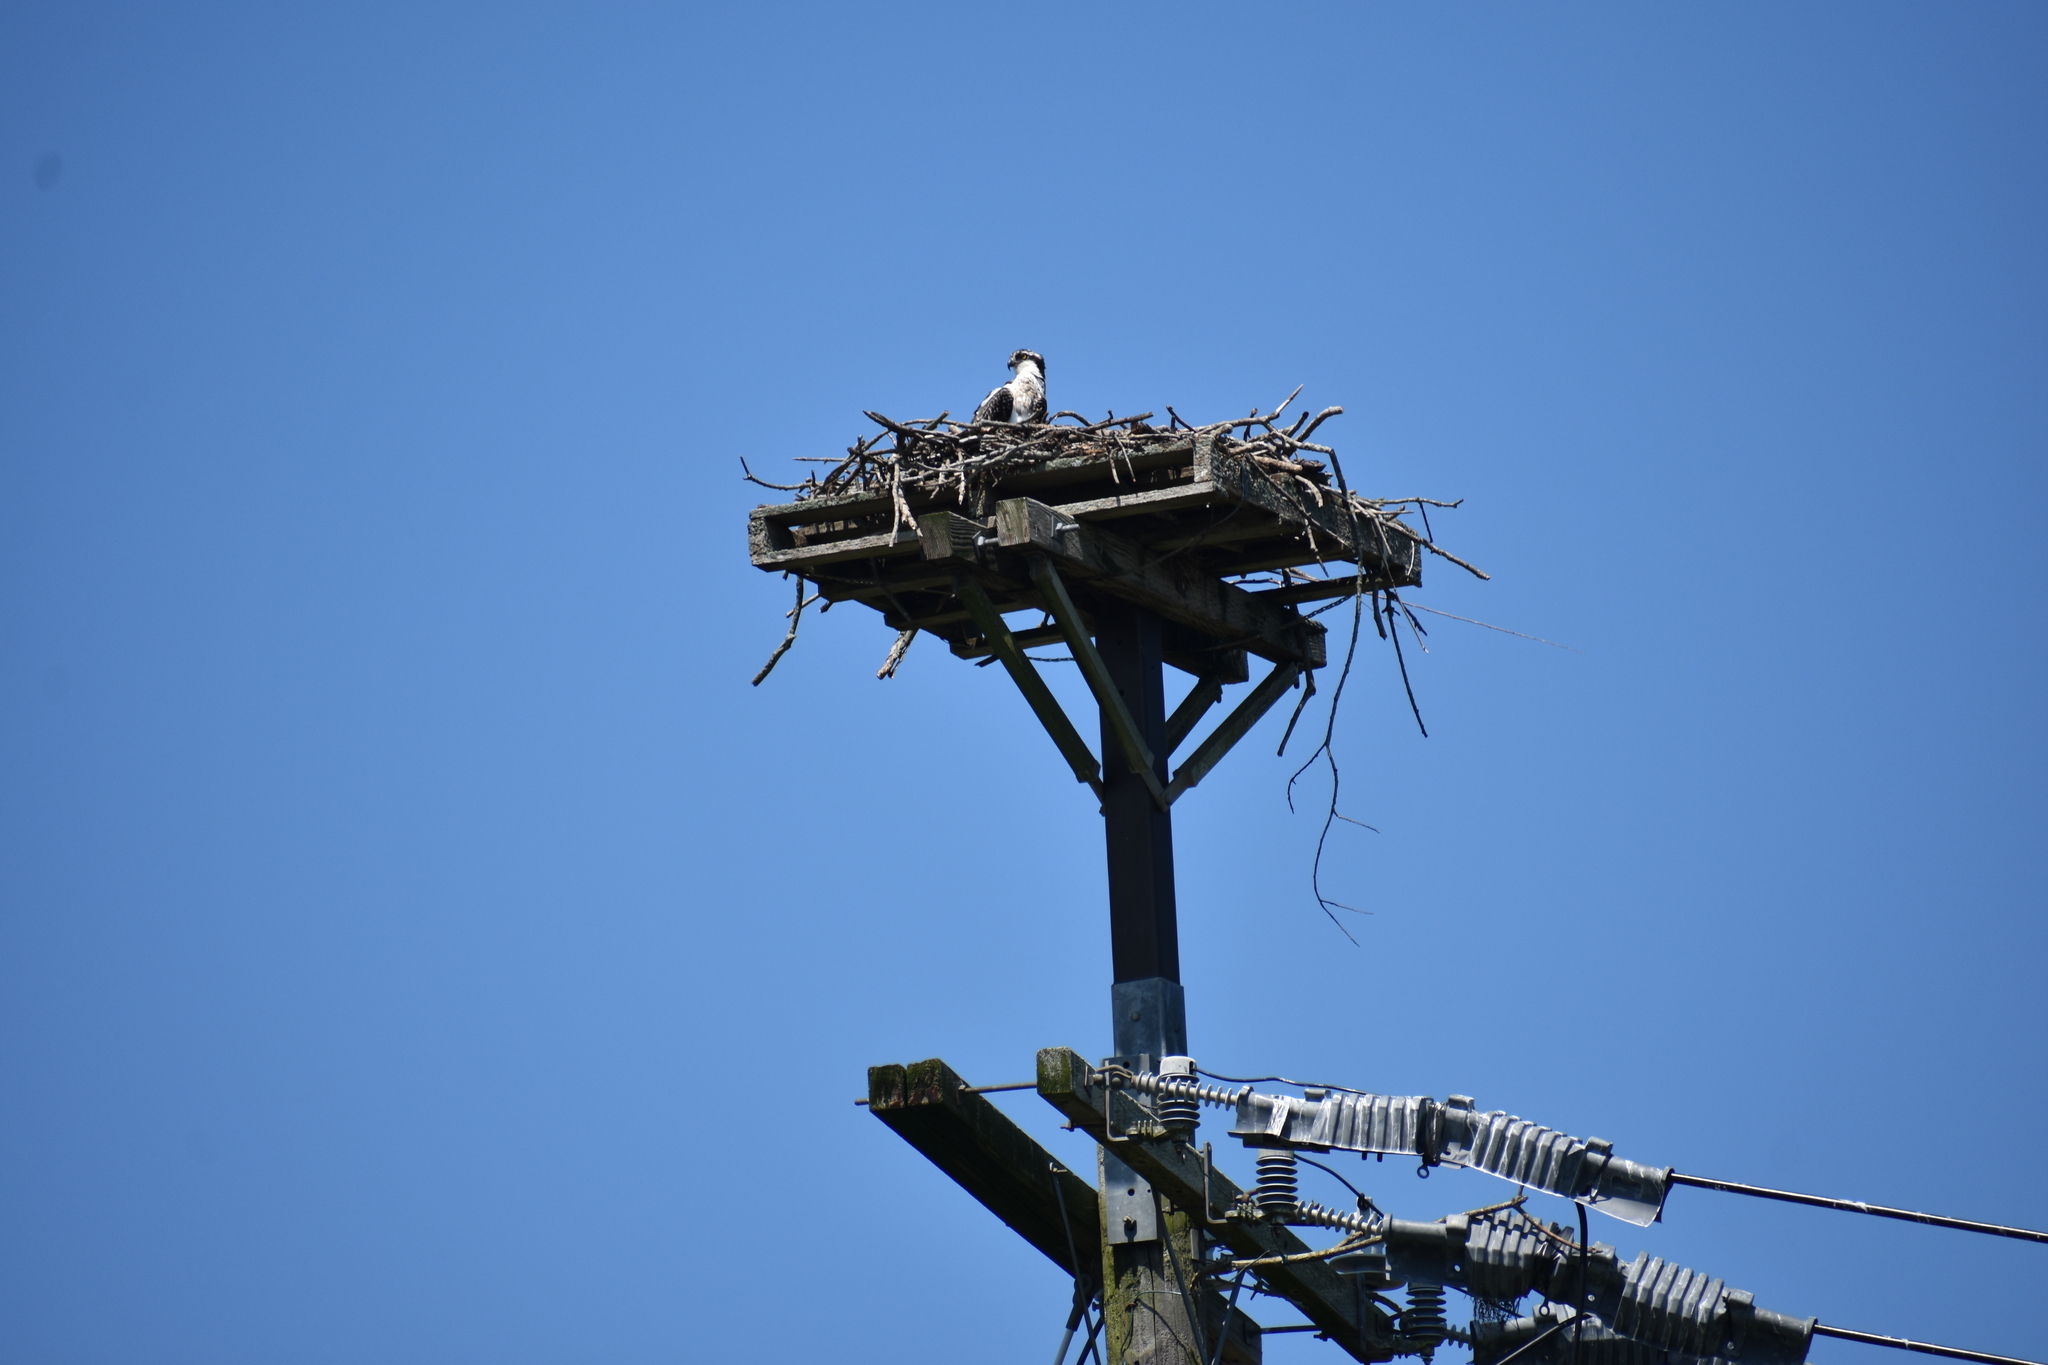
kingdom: Animalia
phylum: Chordata
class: Aves
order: Accipitriformes
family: Pandionidae
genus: Pandion
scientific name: Pandion haliaetus
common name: Osprey
